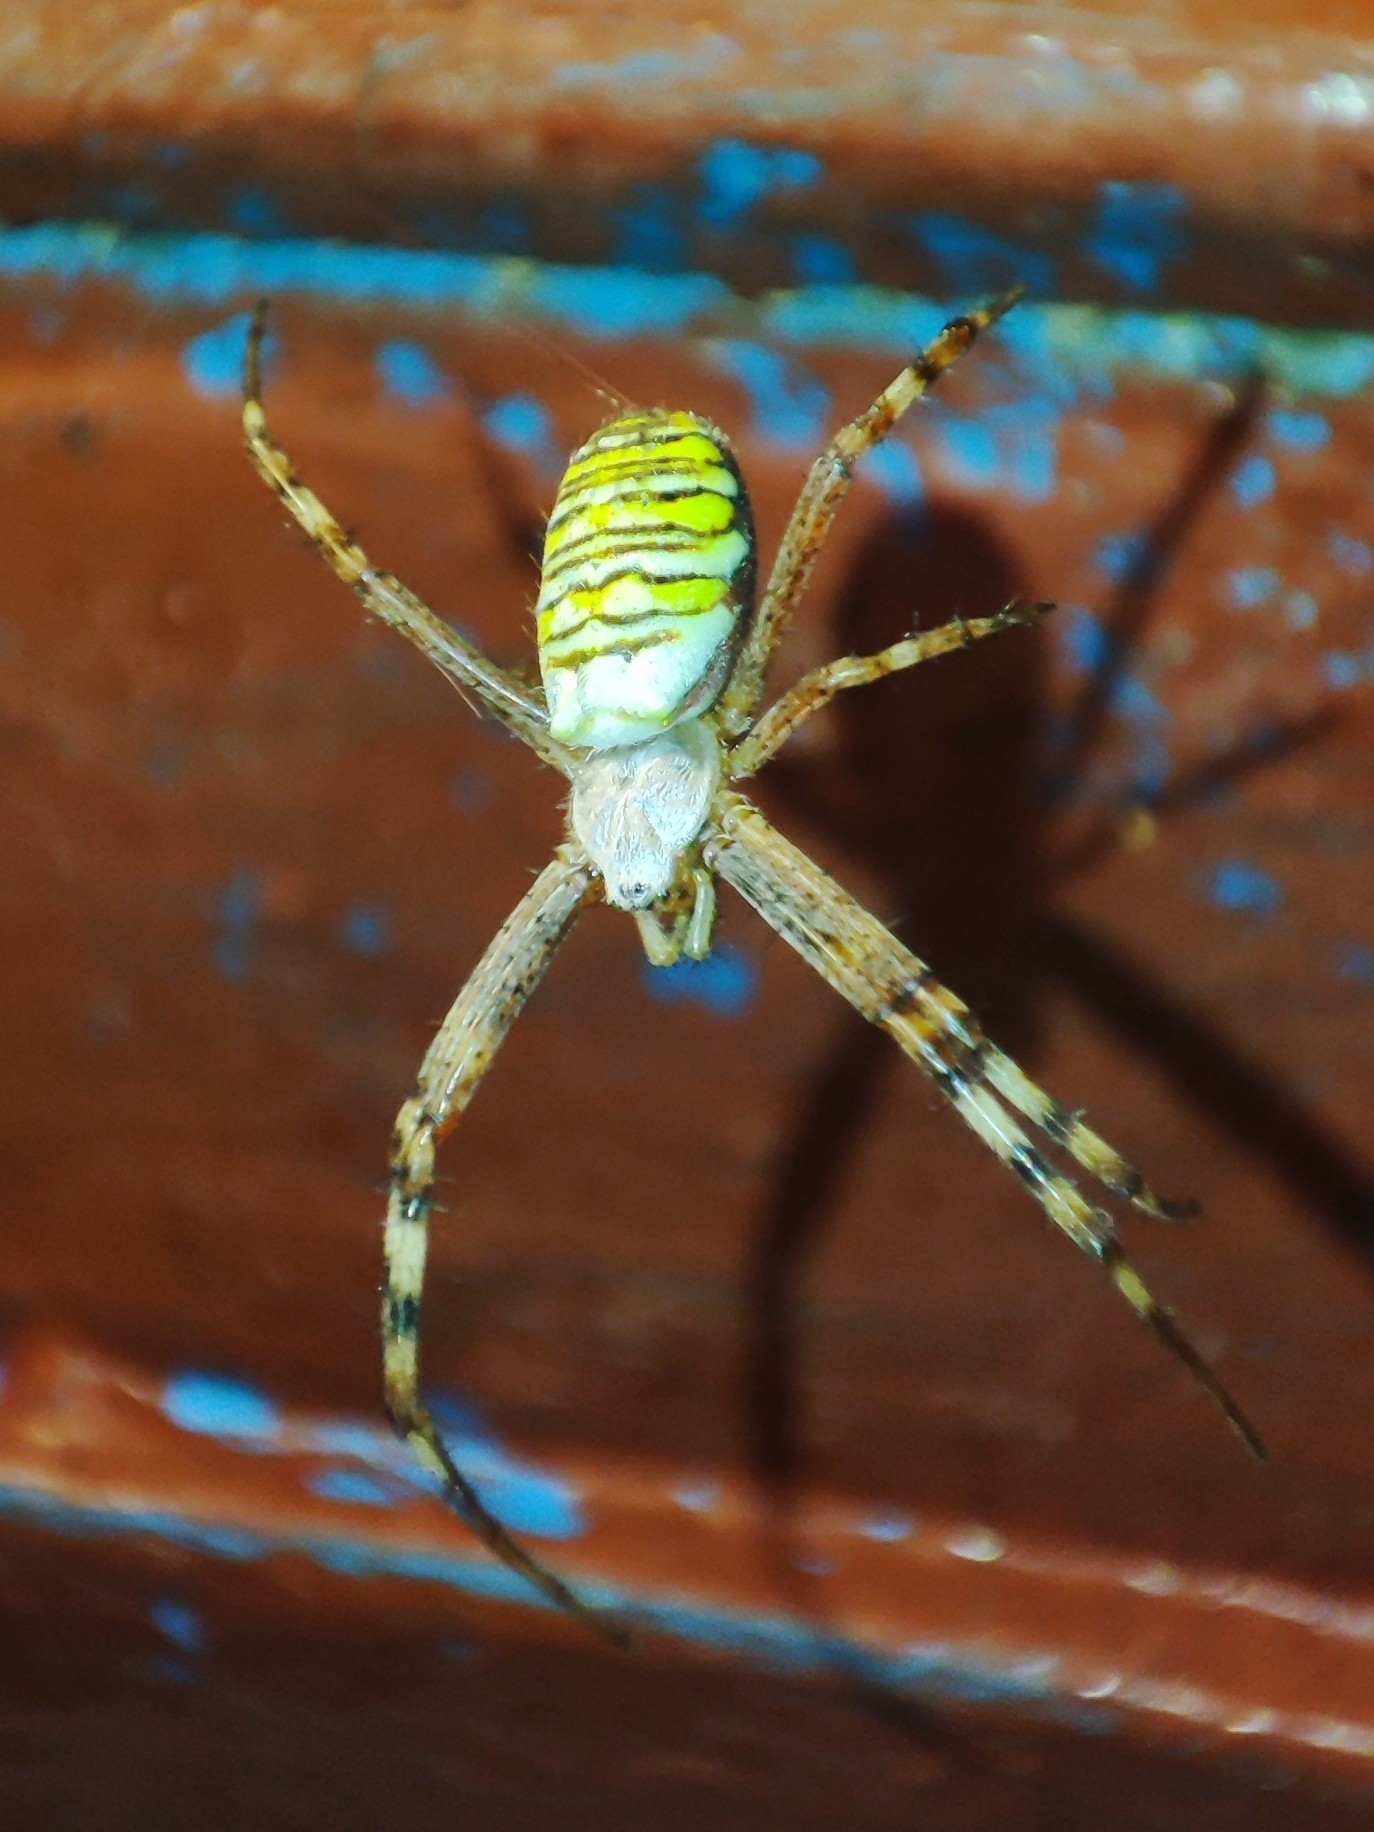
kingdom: Animalia
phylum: Arthropoda
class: Arachnida
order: Araneae
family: Araneidae
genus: Argiope
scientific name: Argiope bruennichi
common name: Wasp spider
